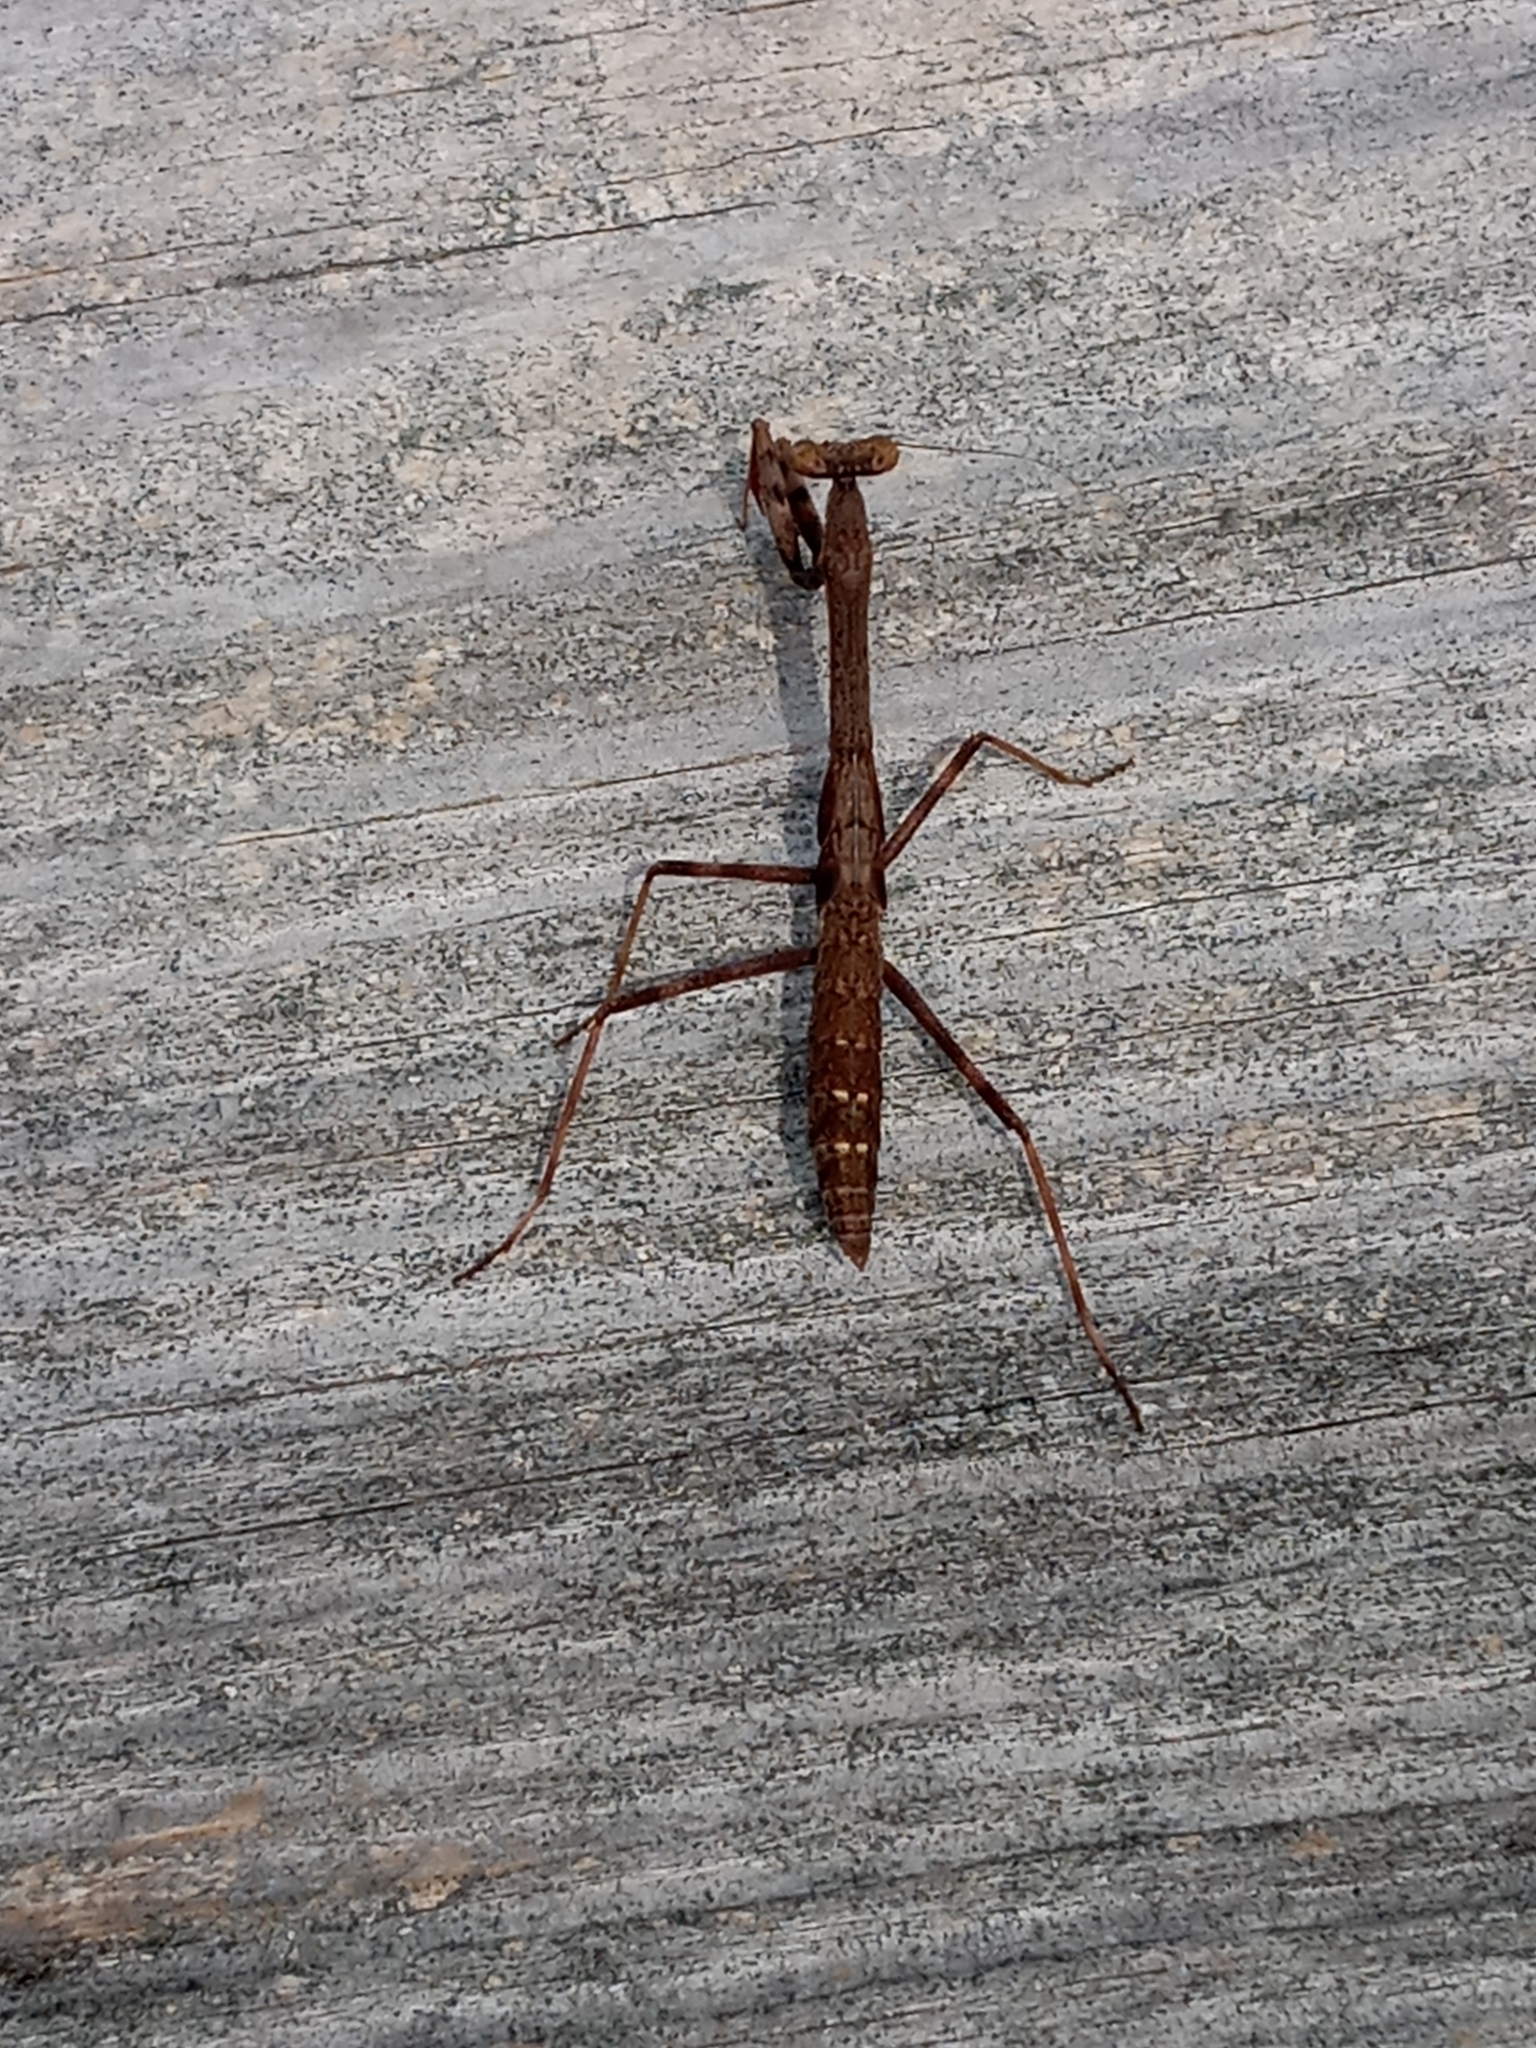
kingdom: Animalia
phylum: Arthropoda
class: Insecta
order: Mantodea
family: Mantidae
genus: Stagmomantis
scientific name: Stagmomantis carolina
